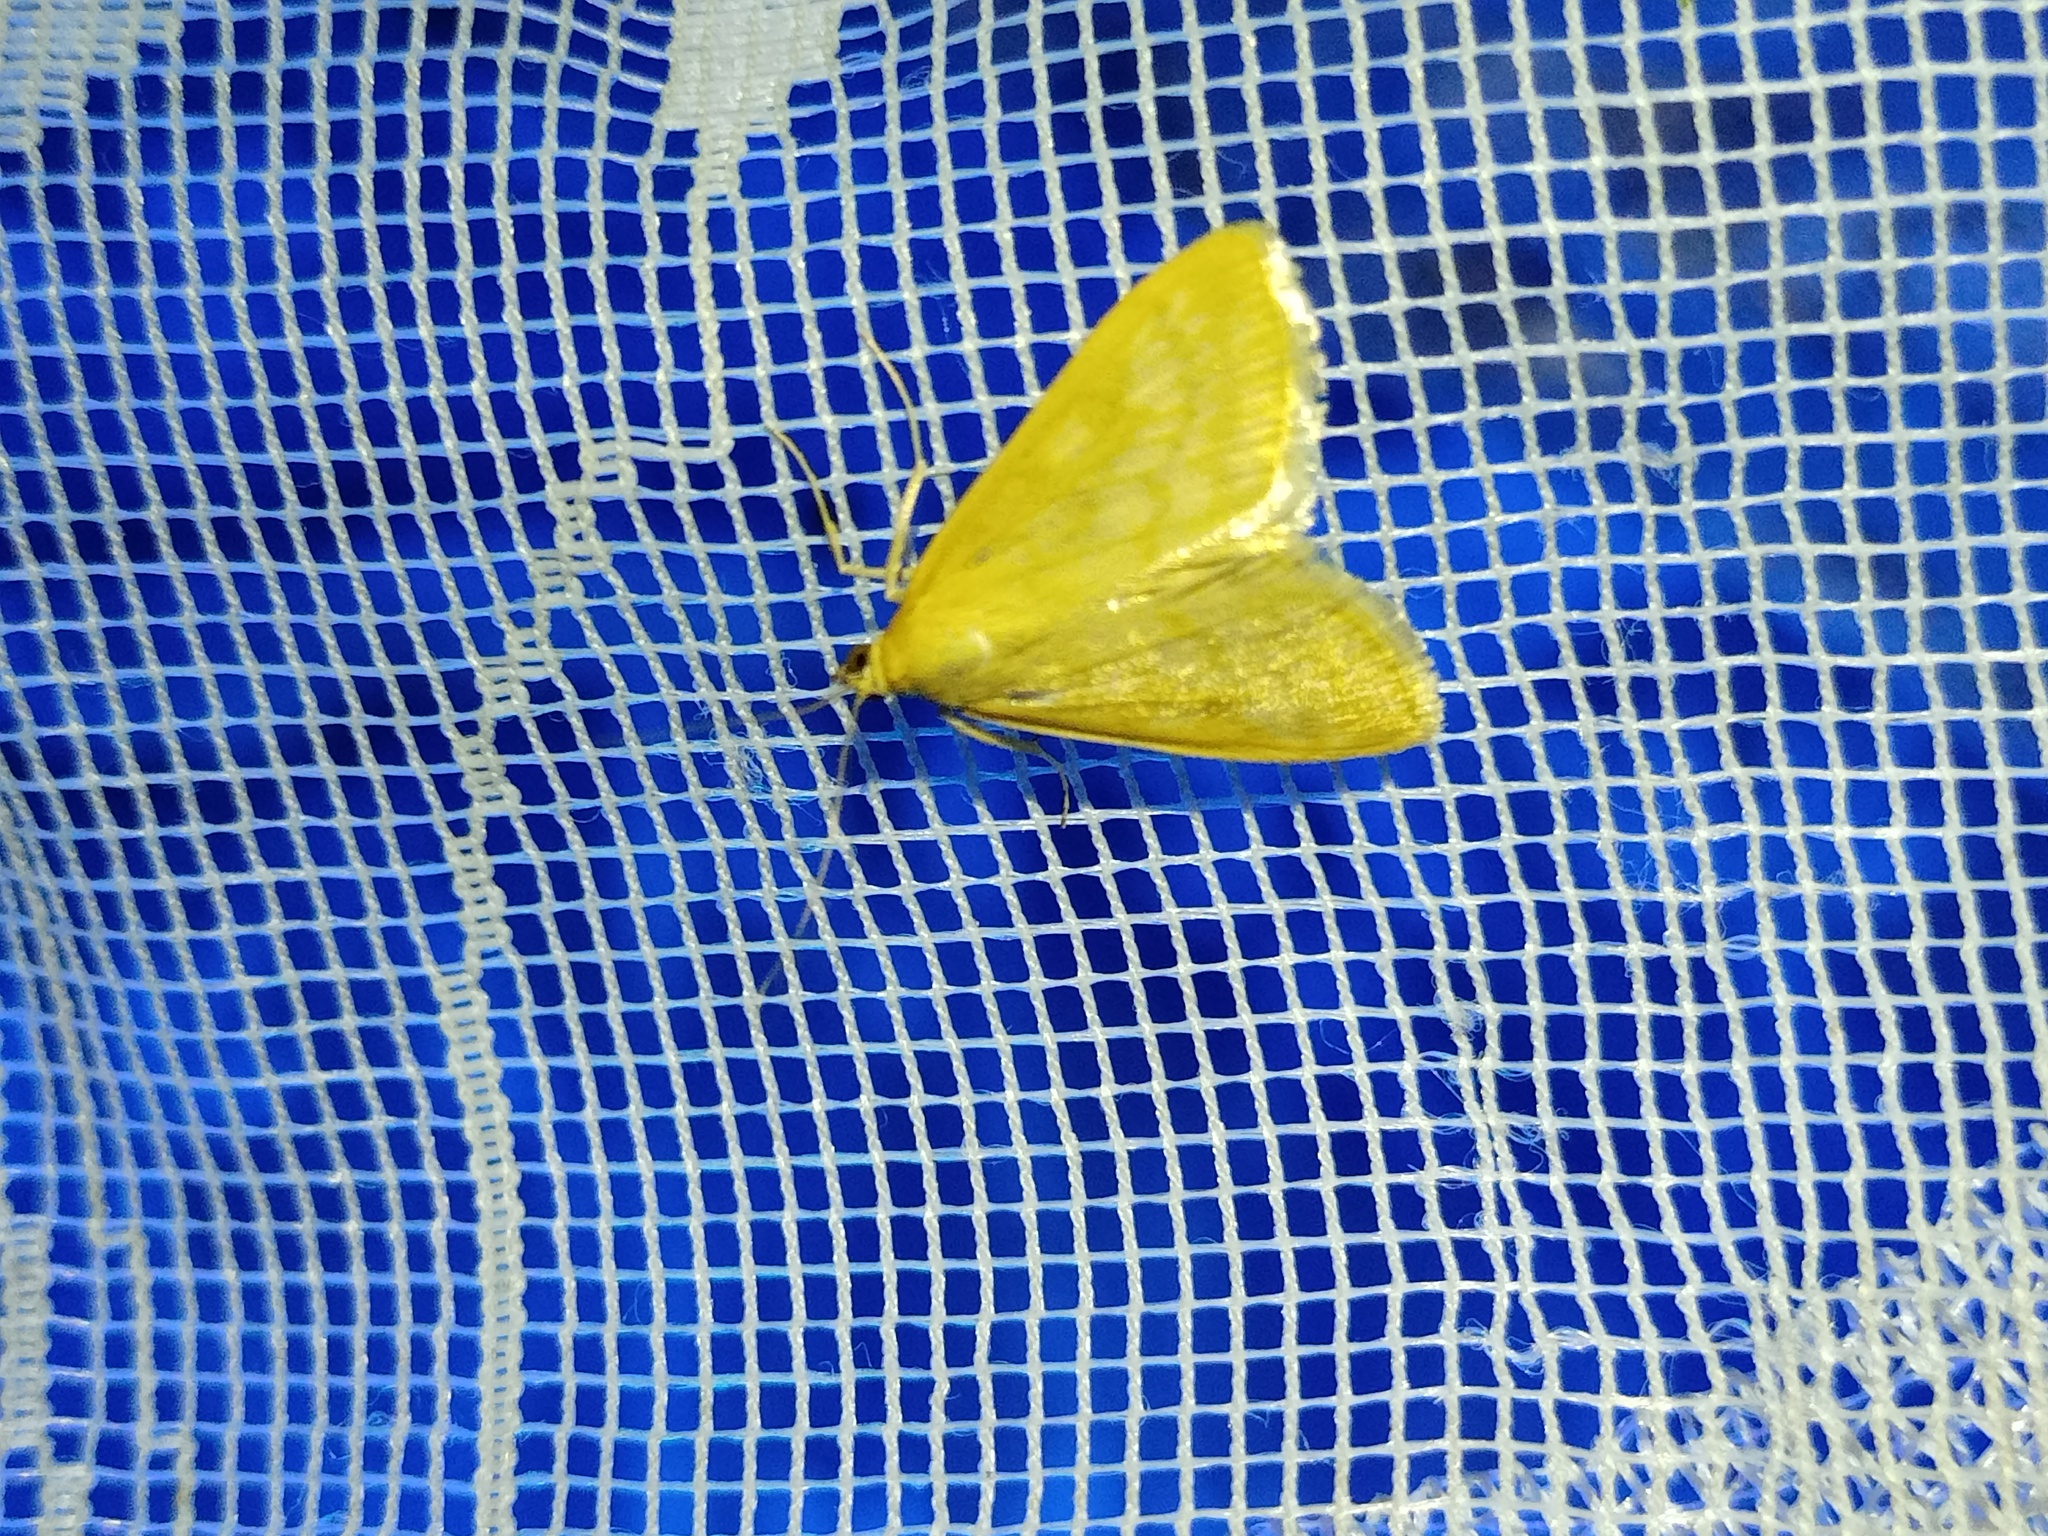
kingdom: Animalia
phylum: Arthropoda
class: Insecta
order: Lepidoptera
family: Crambidae
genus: Sitochroa
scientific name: Sitochroa verticalis
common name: Lesser pearl
